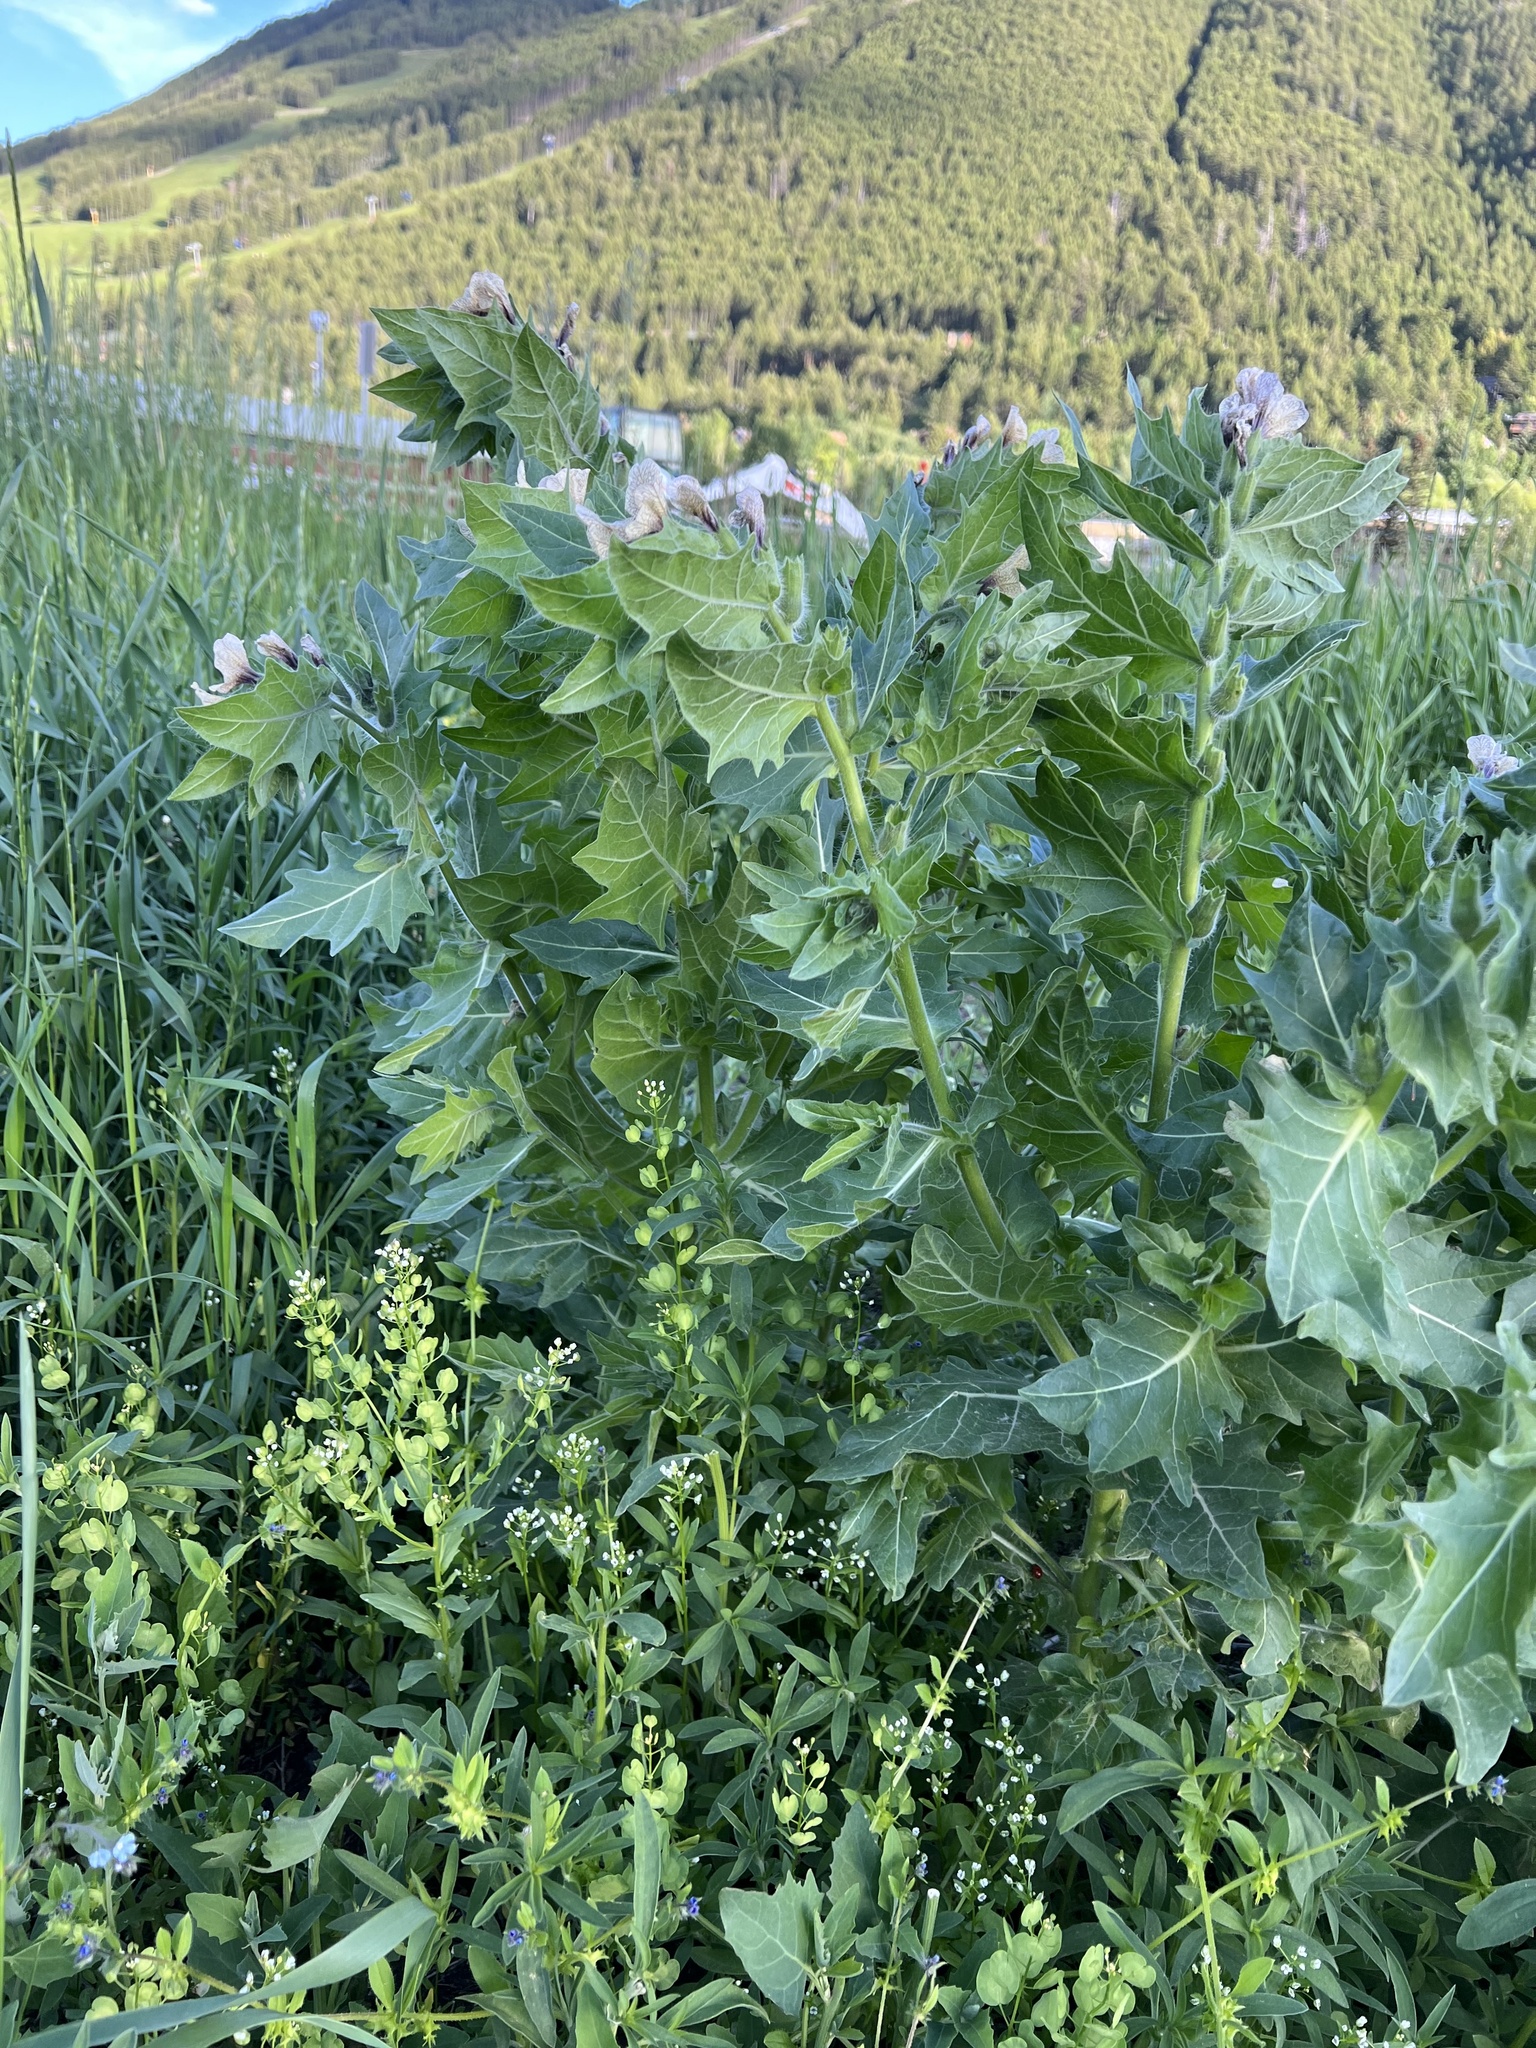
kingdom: Plantae
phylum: Tracheophyta
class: Magnoliopsida
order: Solanales
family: Solanaceae
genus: Hyoscyamus
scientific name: Hyoscyamus niger
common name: Henbane
